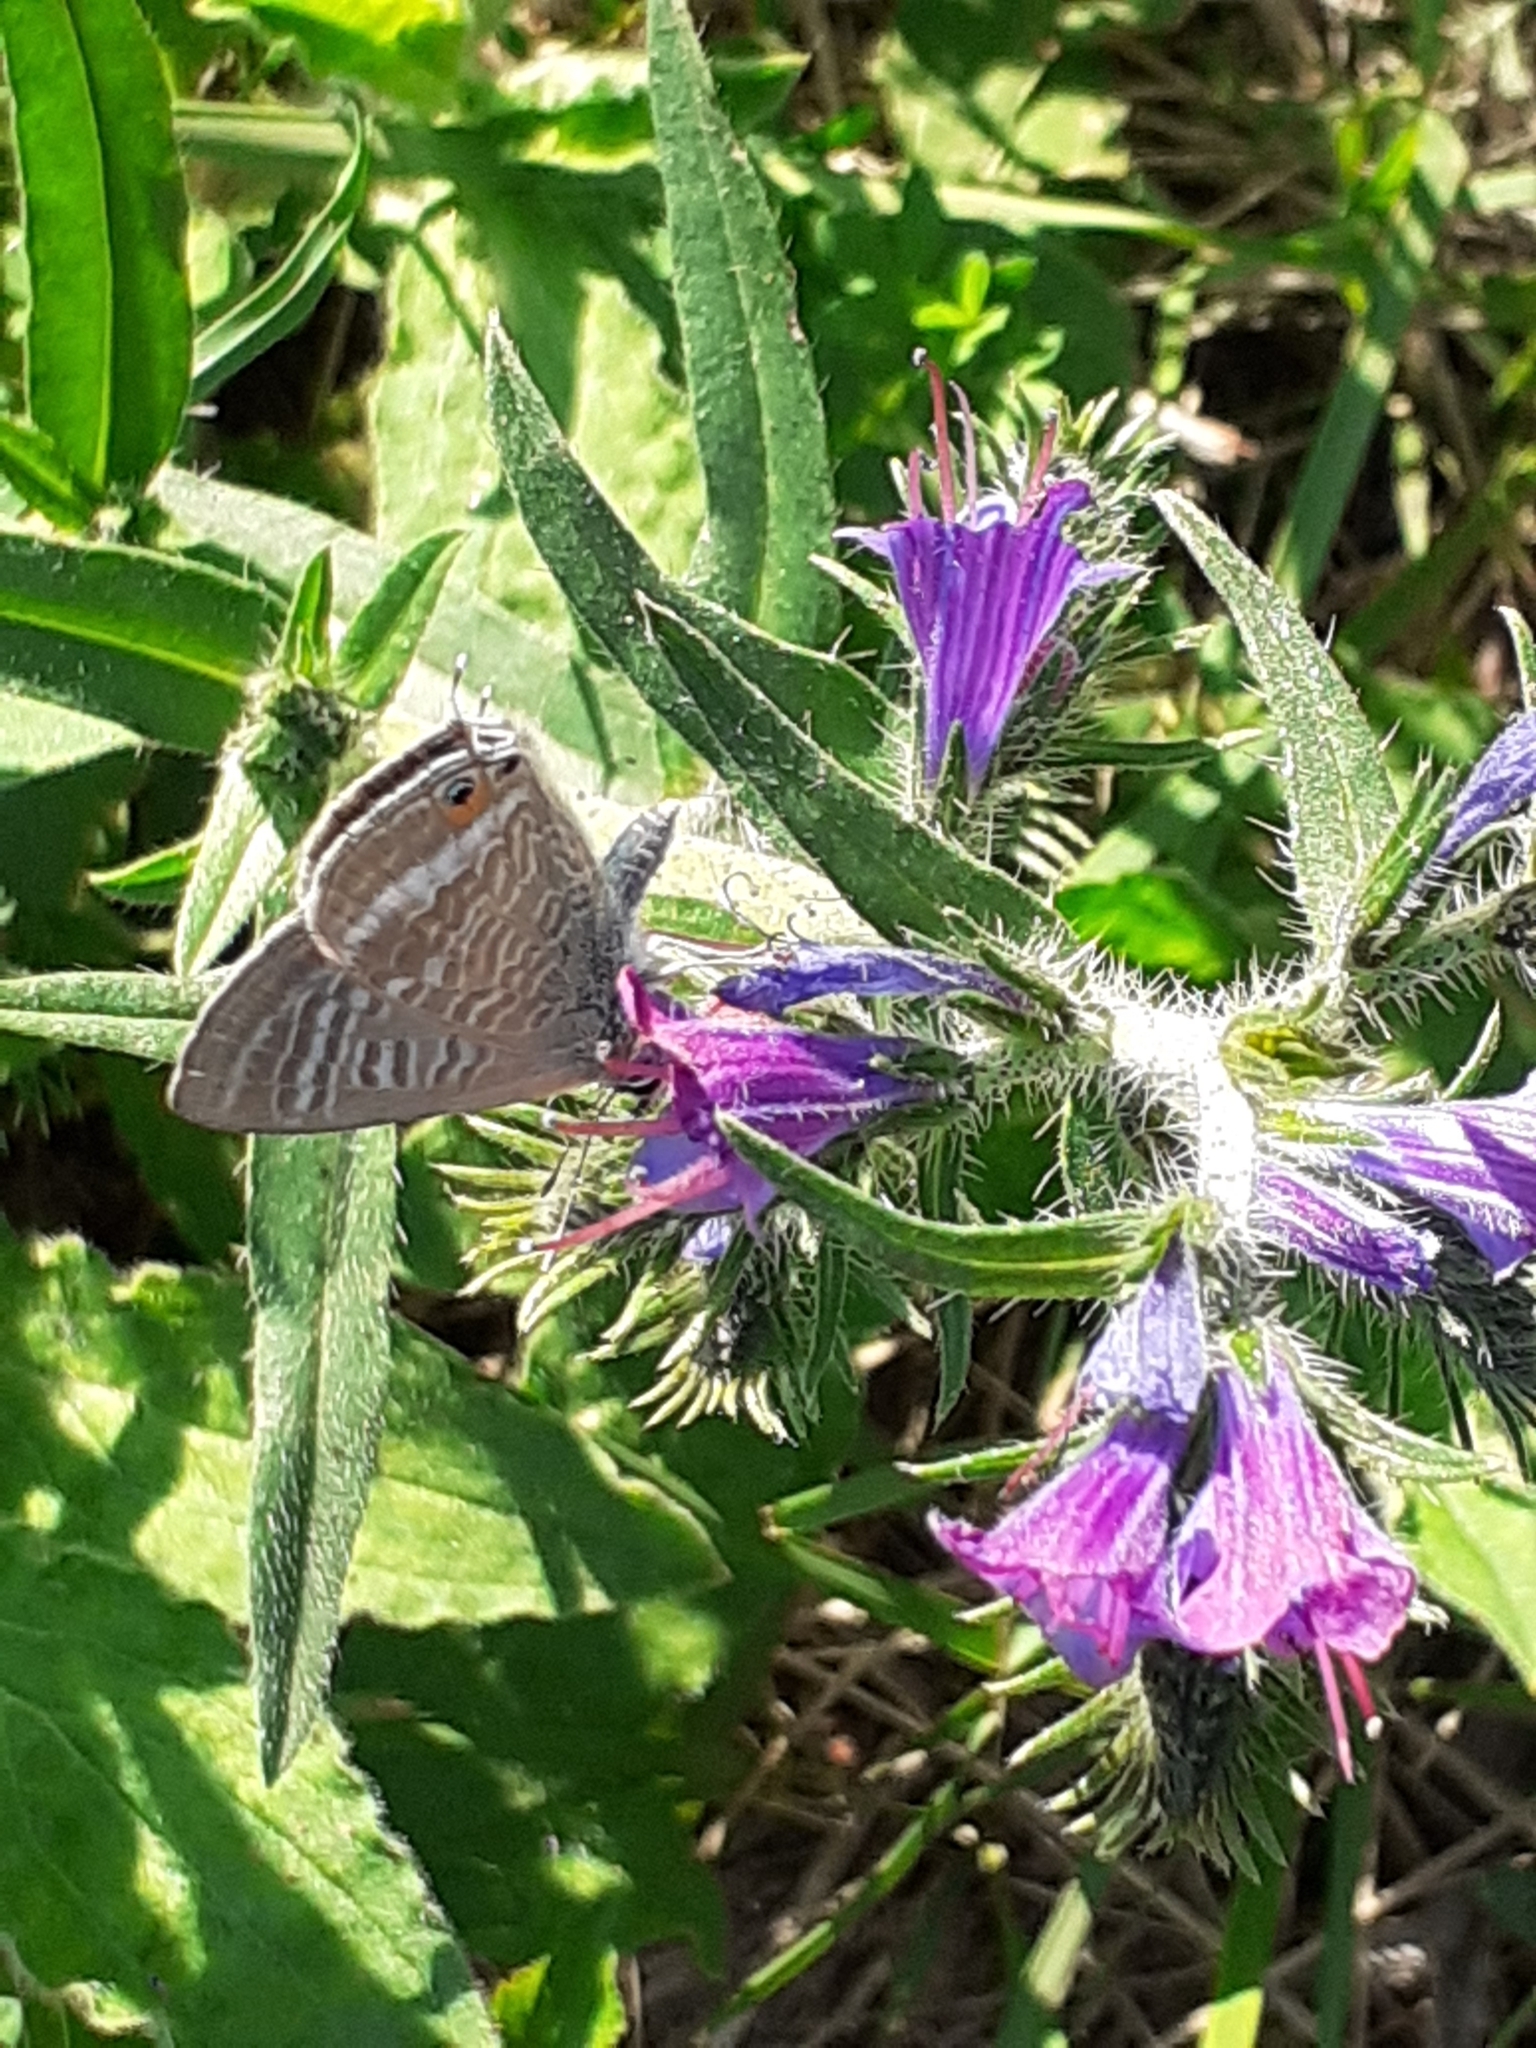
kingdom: Animalia
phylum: Arthropoda
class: Insecta
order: Lepidoptera
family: Lycaenidae
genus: Lampides
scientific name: Lampides boeticus
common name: Long-tailed blue
